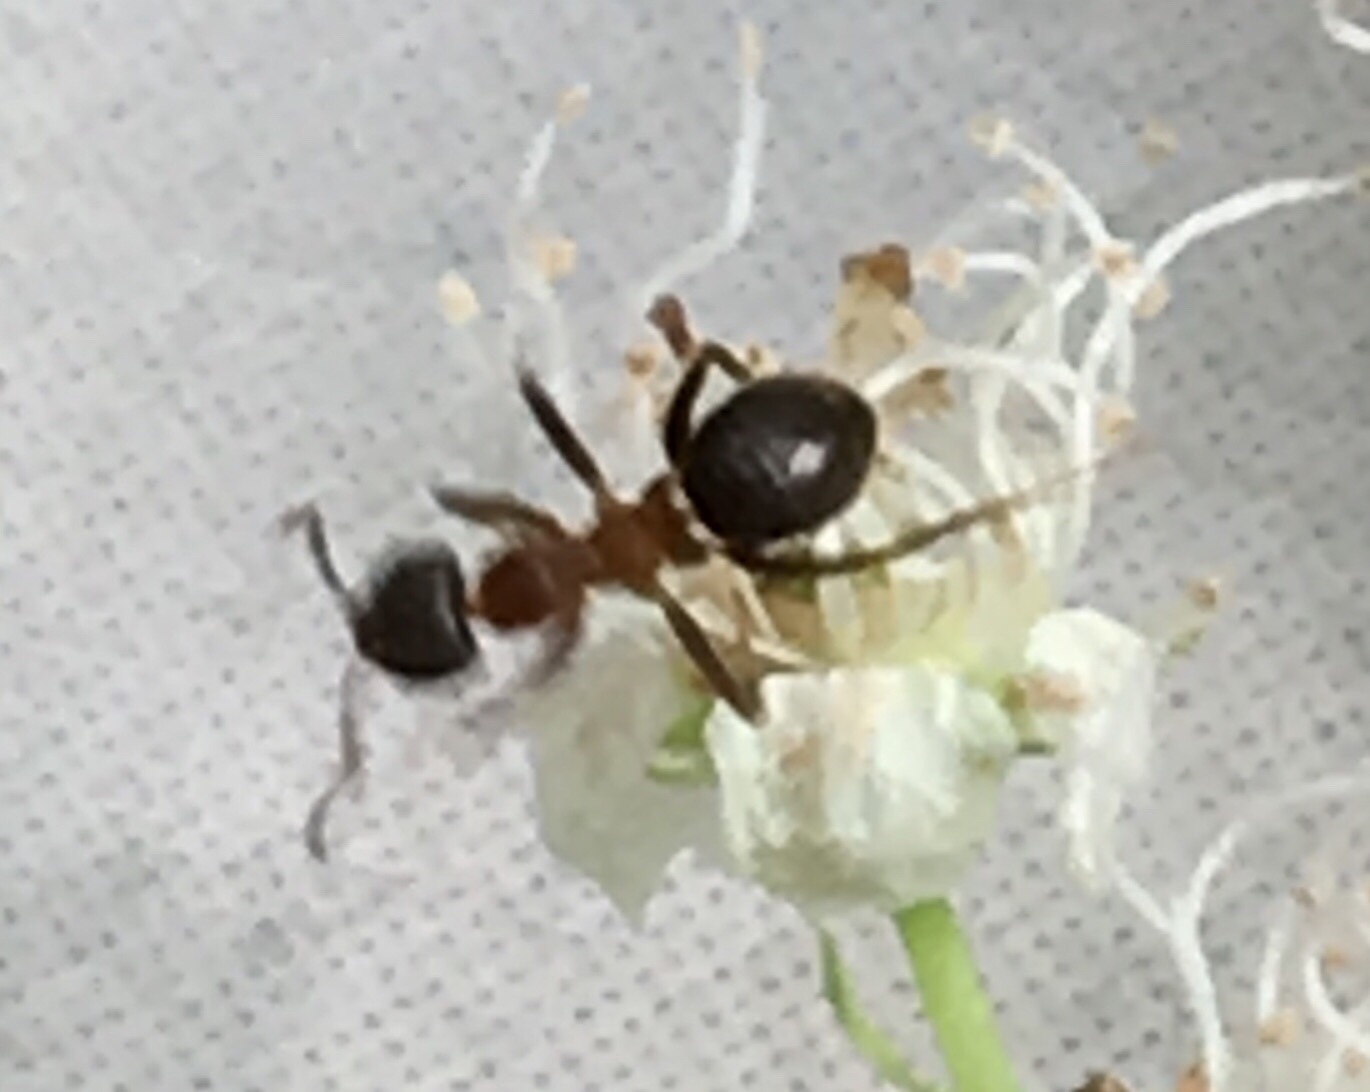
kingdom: Animalia
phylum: Arthropoda
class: Insecta
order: Hymenoptera
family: Formicidae
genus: Lasius
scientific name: Lasius emarginatus
